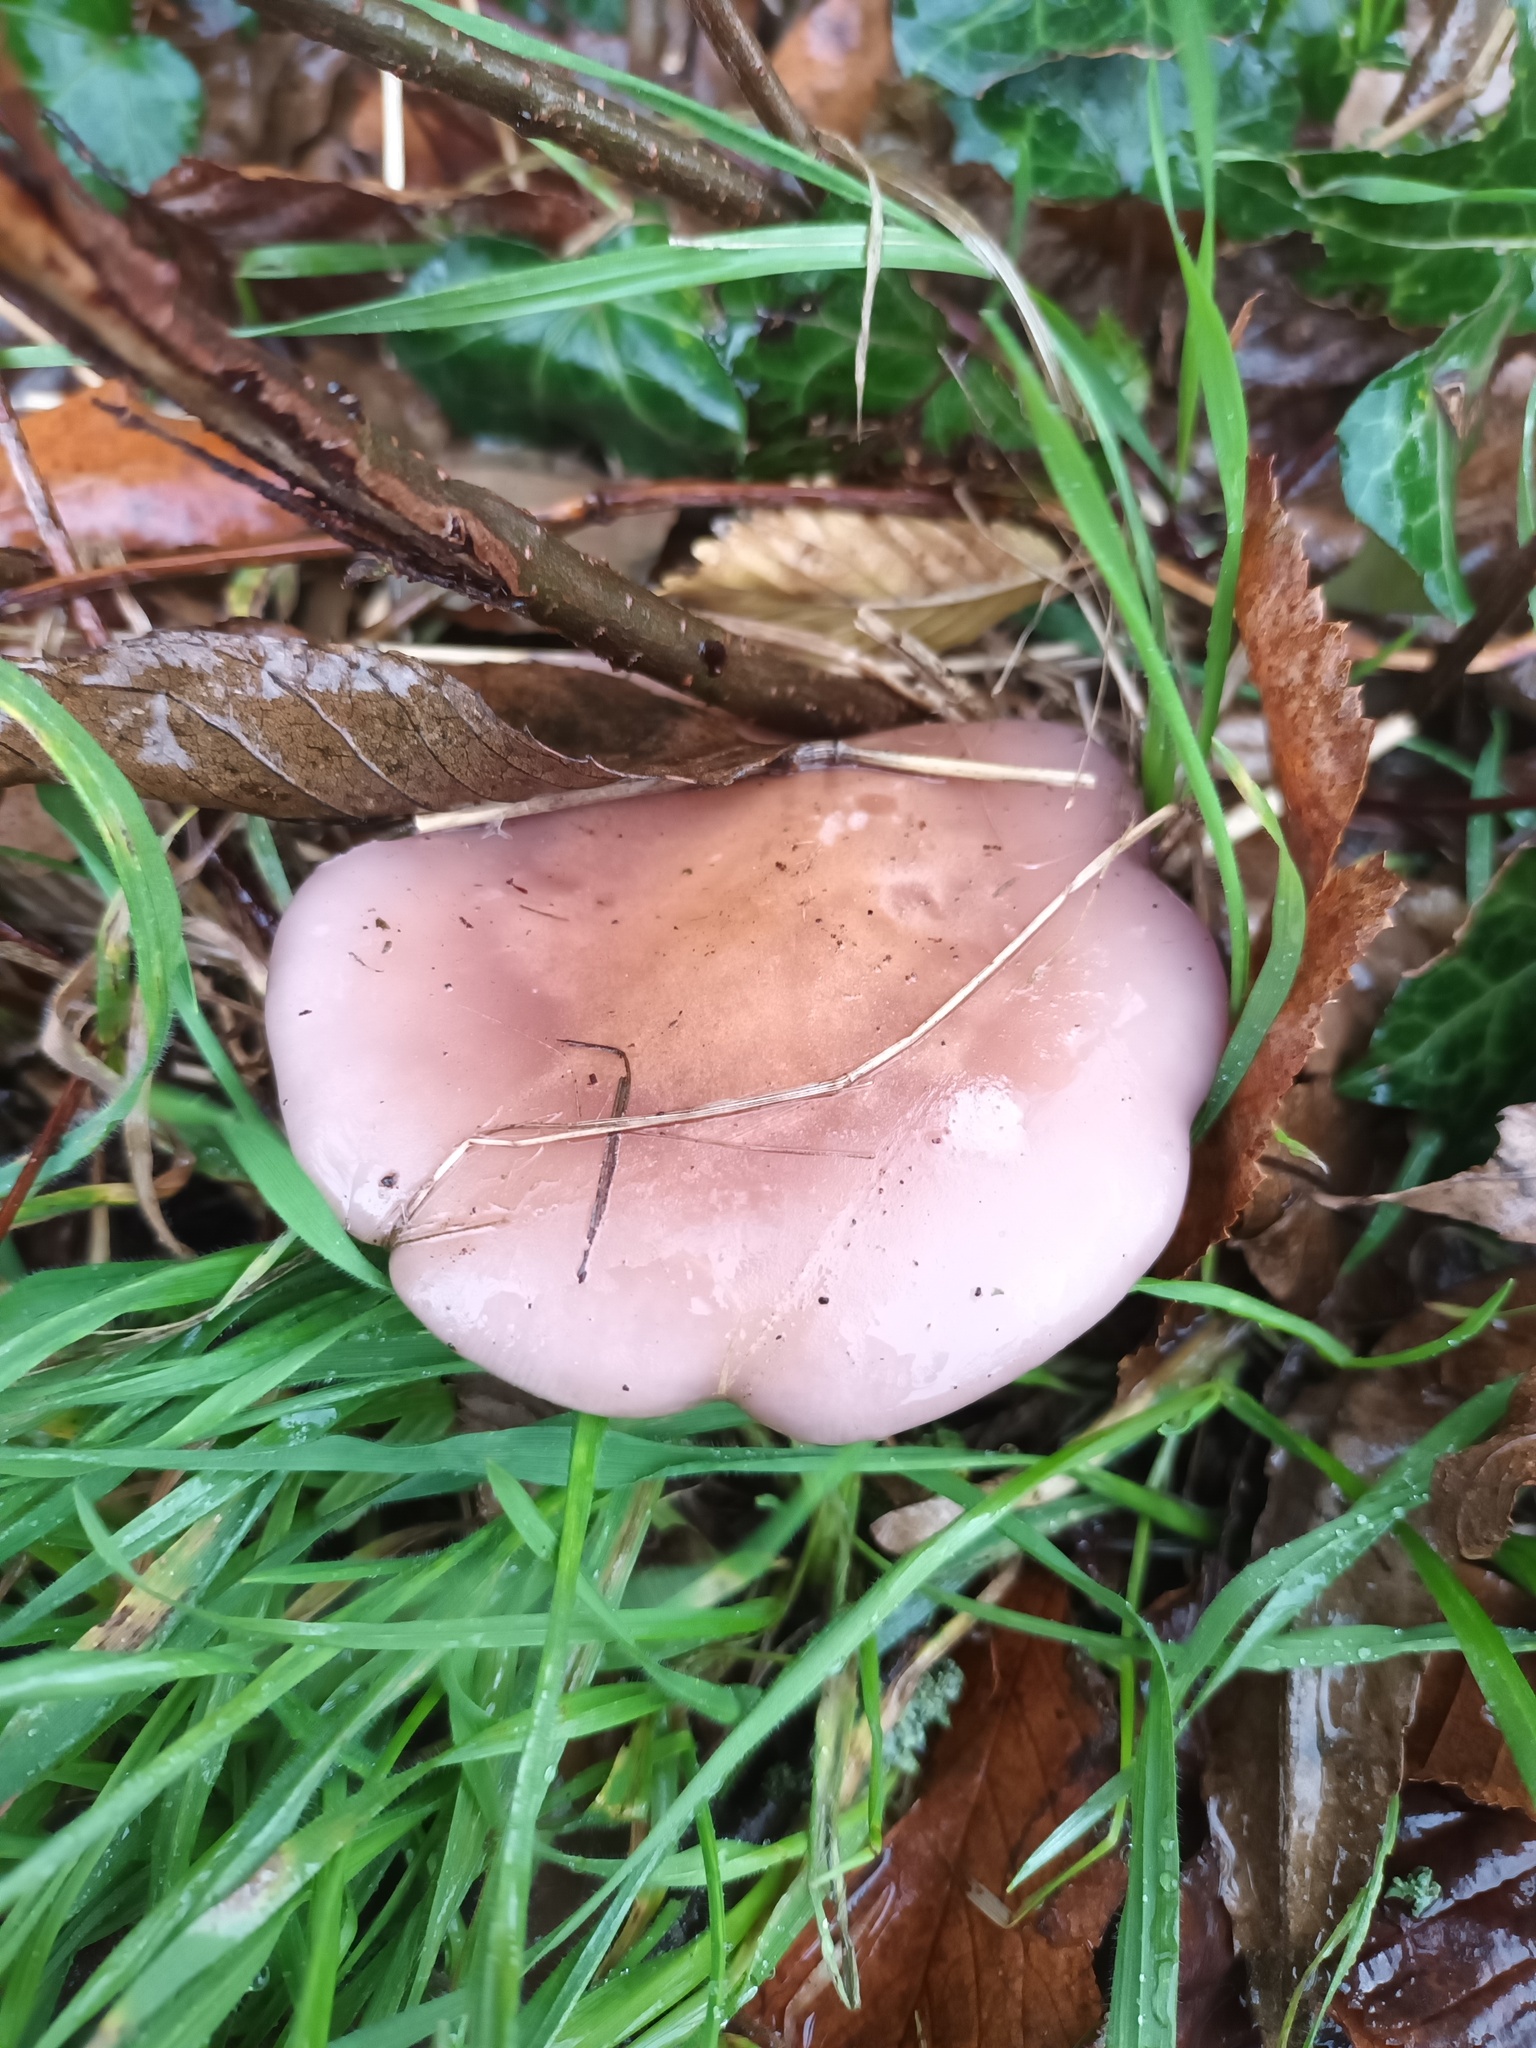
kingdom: Fungi
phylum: Basidiomycota
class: Agaricomycetes
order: Agaricales
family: Tricholomataceae
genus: Collybia
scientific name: Collybia
